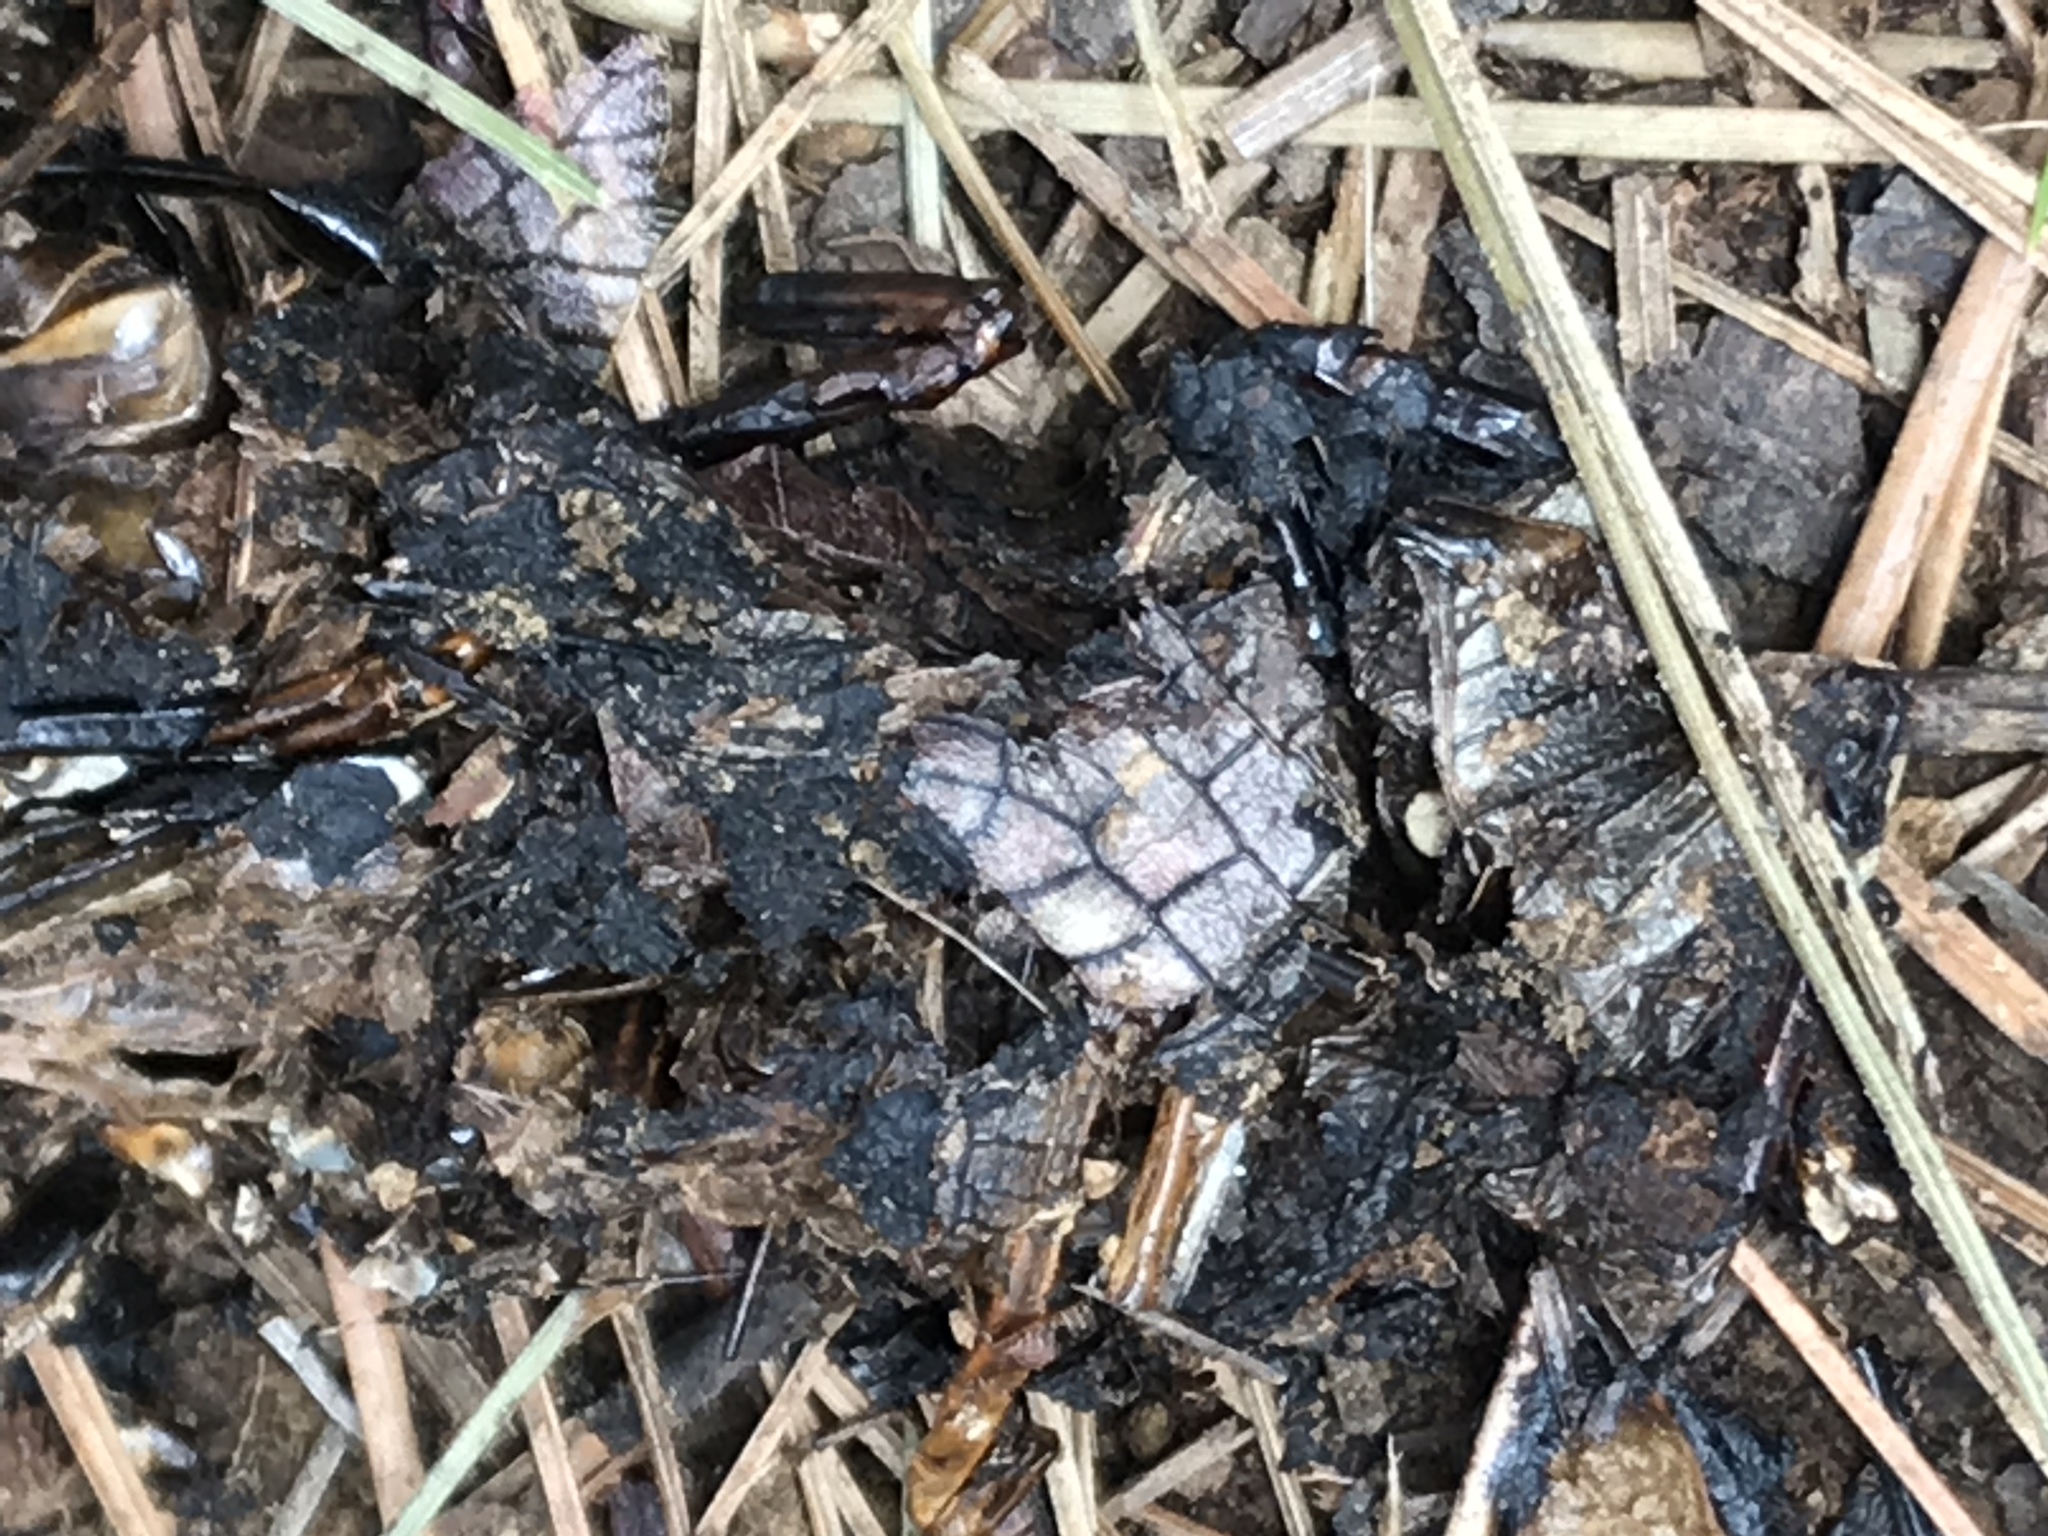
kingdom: Animalia
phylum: Chordata
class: Mammalia
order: Carnivora
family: Ursidae
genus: Ursus
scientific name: Ursus americanus
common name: American black bear
